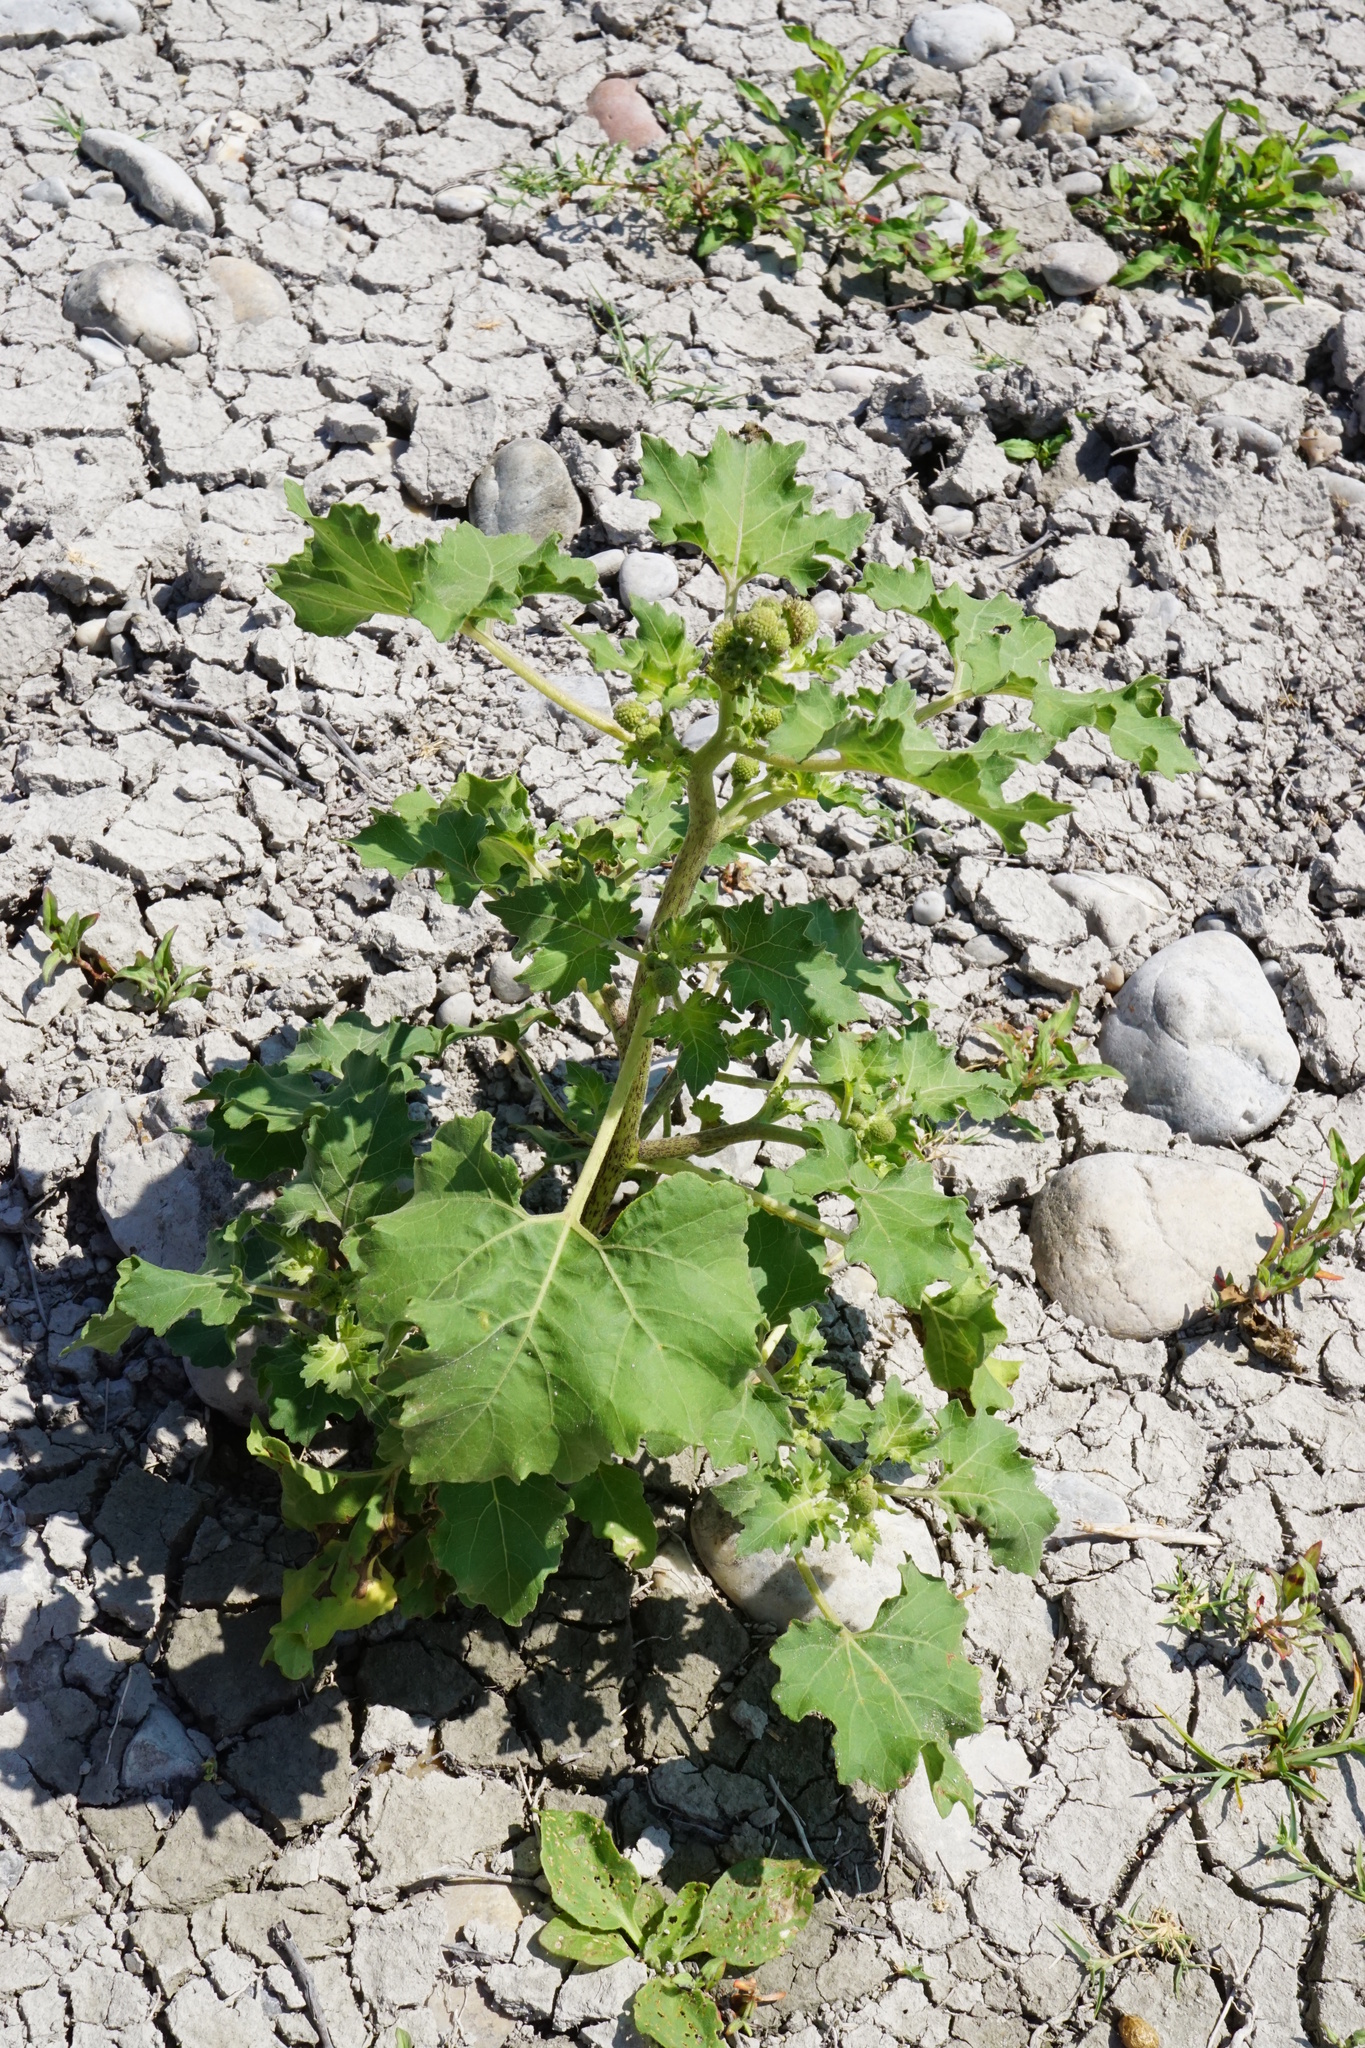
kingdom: Plantae
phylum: Tracheophyta
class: Magnoliopsida
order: Asterales
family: Asteraceae
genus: Xanthium
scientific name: Xanthium strumarium
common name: Rough cocklebur
